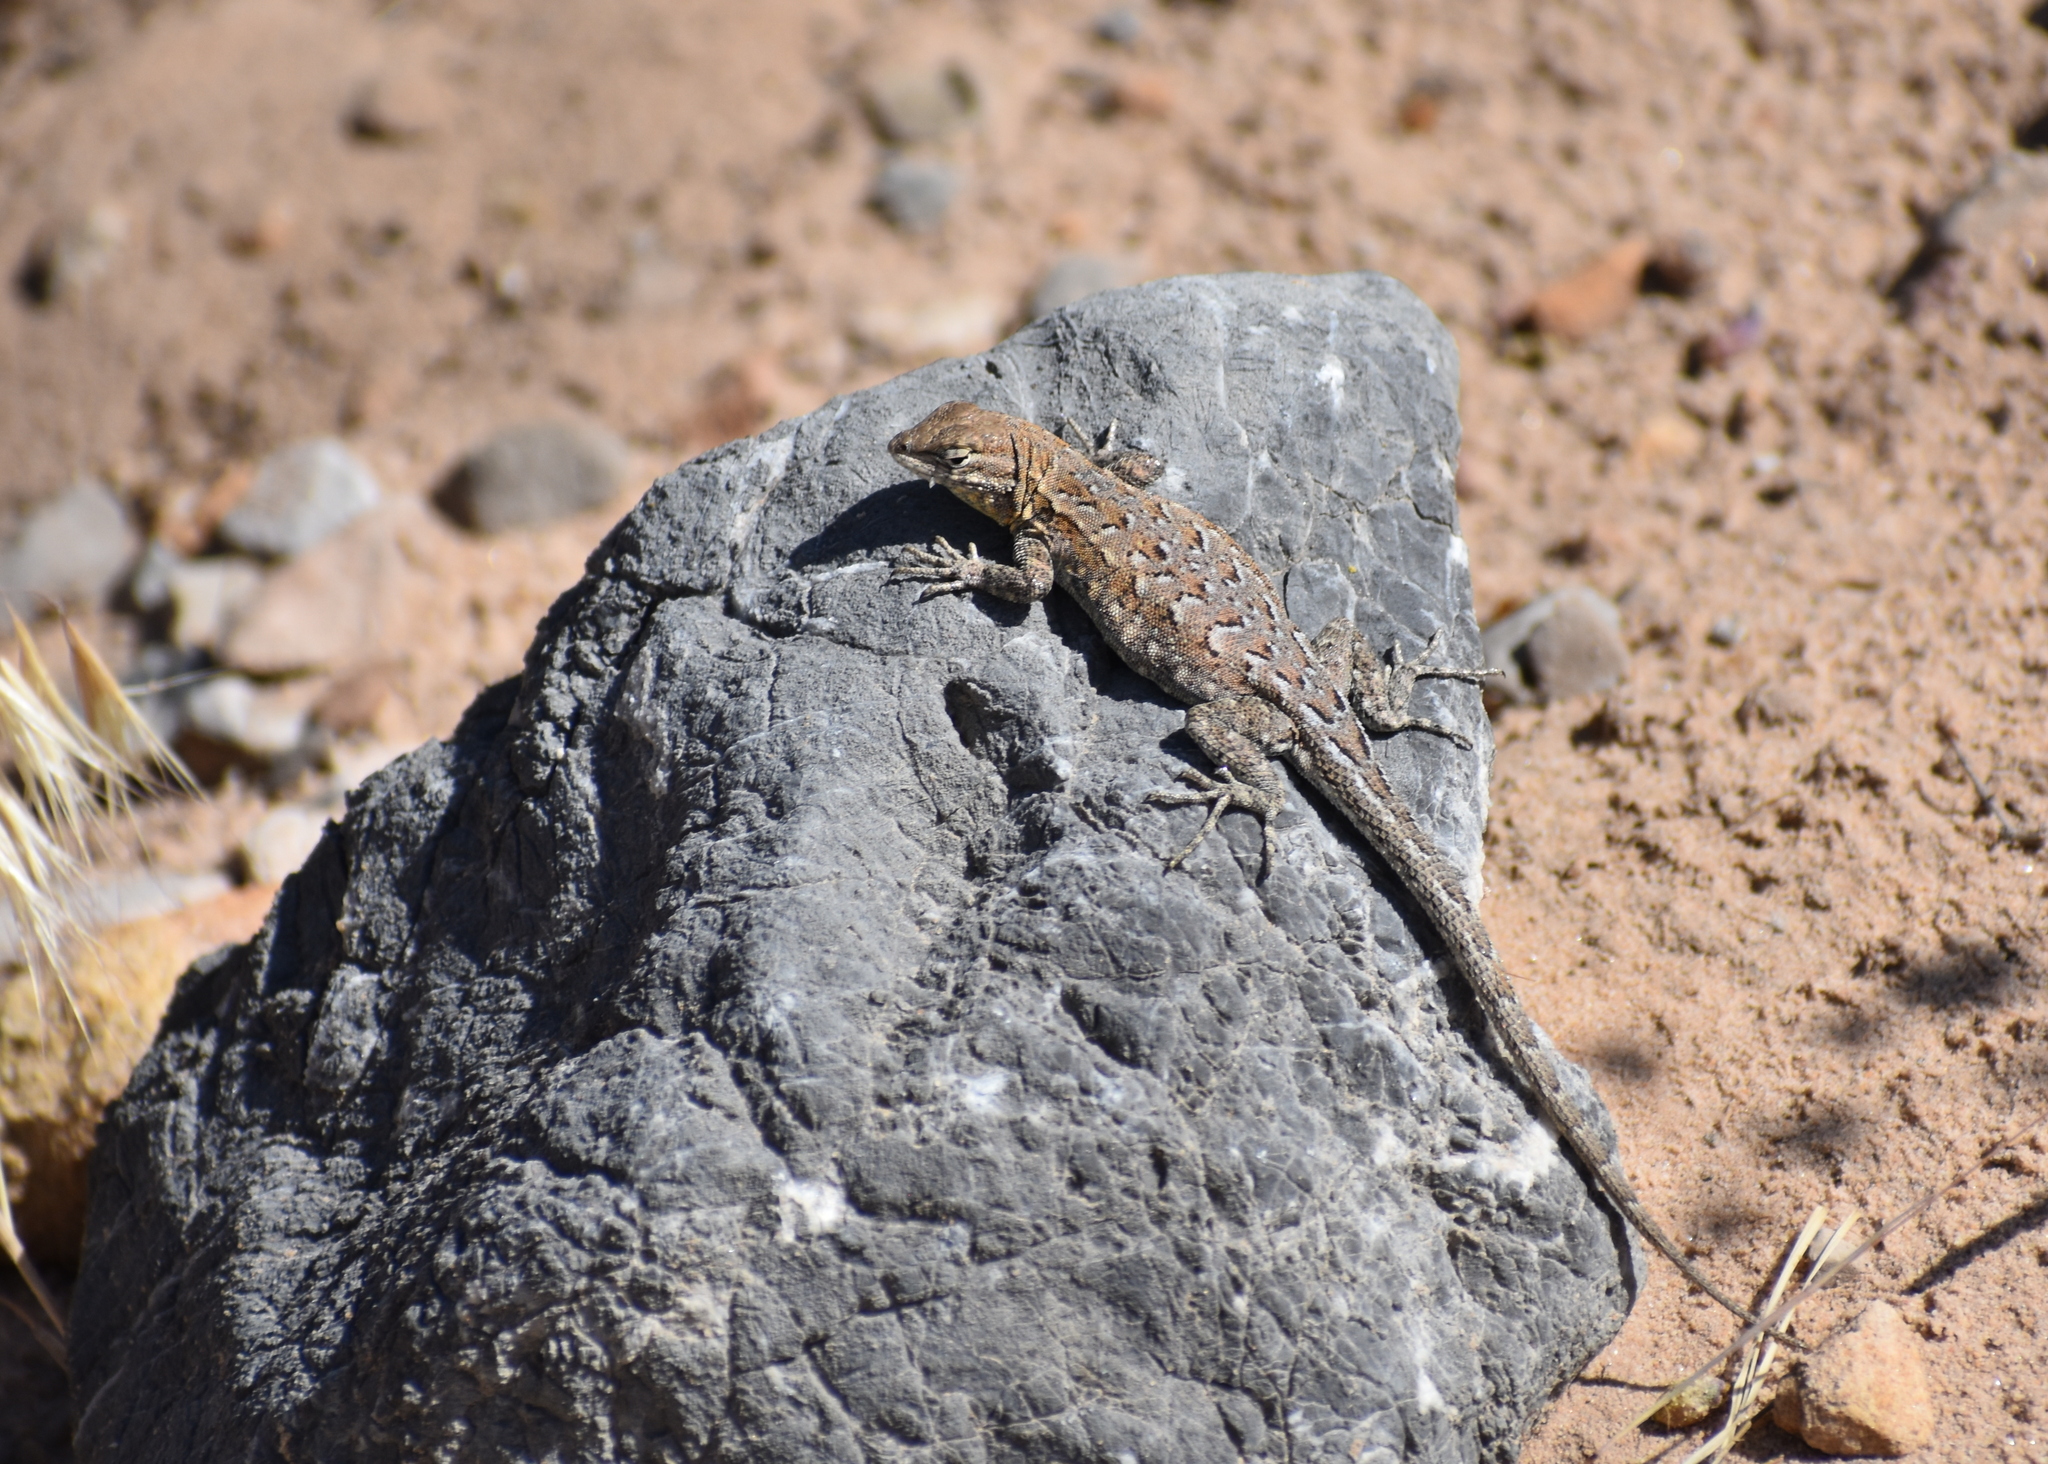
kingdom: Animalia
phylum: Chordata
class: Squamata
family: Phrynosomatidae
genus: Uta
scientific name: Uta stansburiana
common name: Side-blotched lizard
